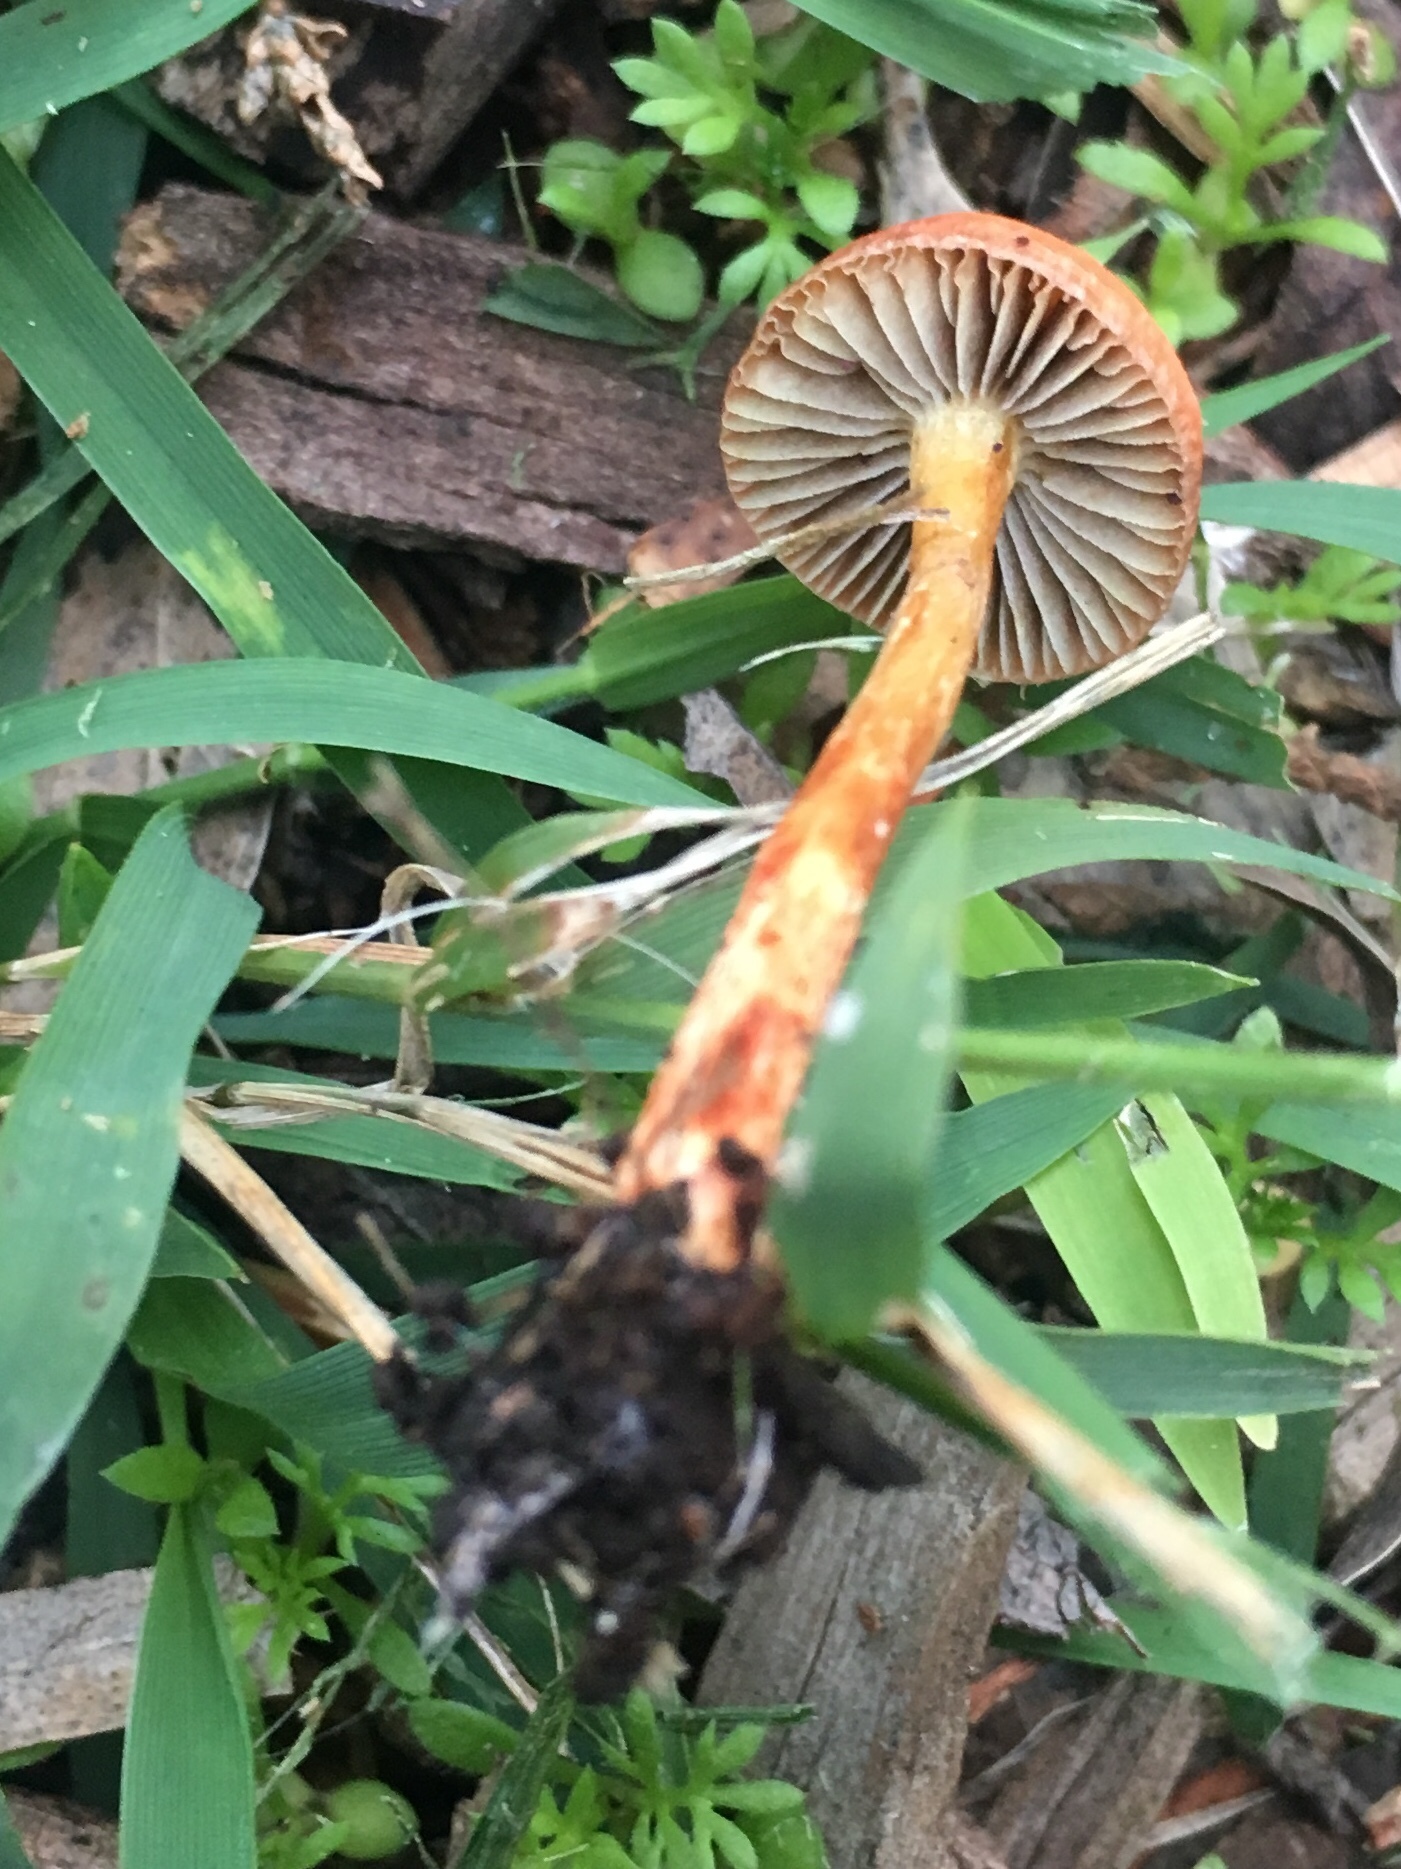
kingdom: Fungi
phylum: Basidiomycota
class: Agaricomycetes
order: Agaricales
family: Strophariaceae
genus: Leratiomyces
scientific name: Leratiomyces ceres
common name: Redlead roundhead
